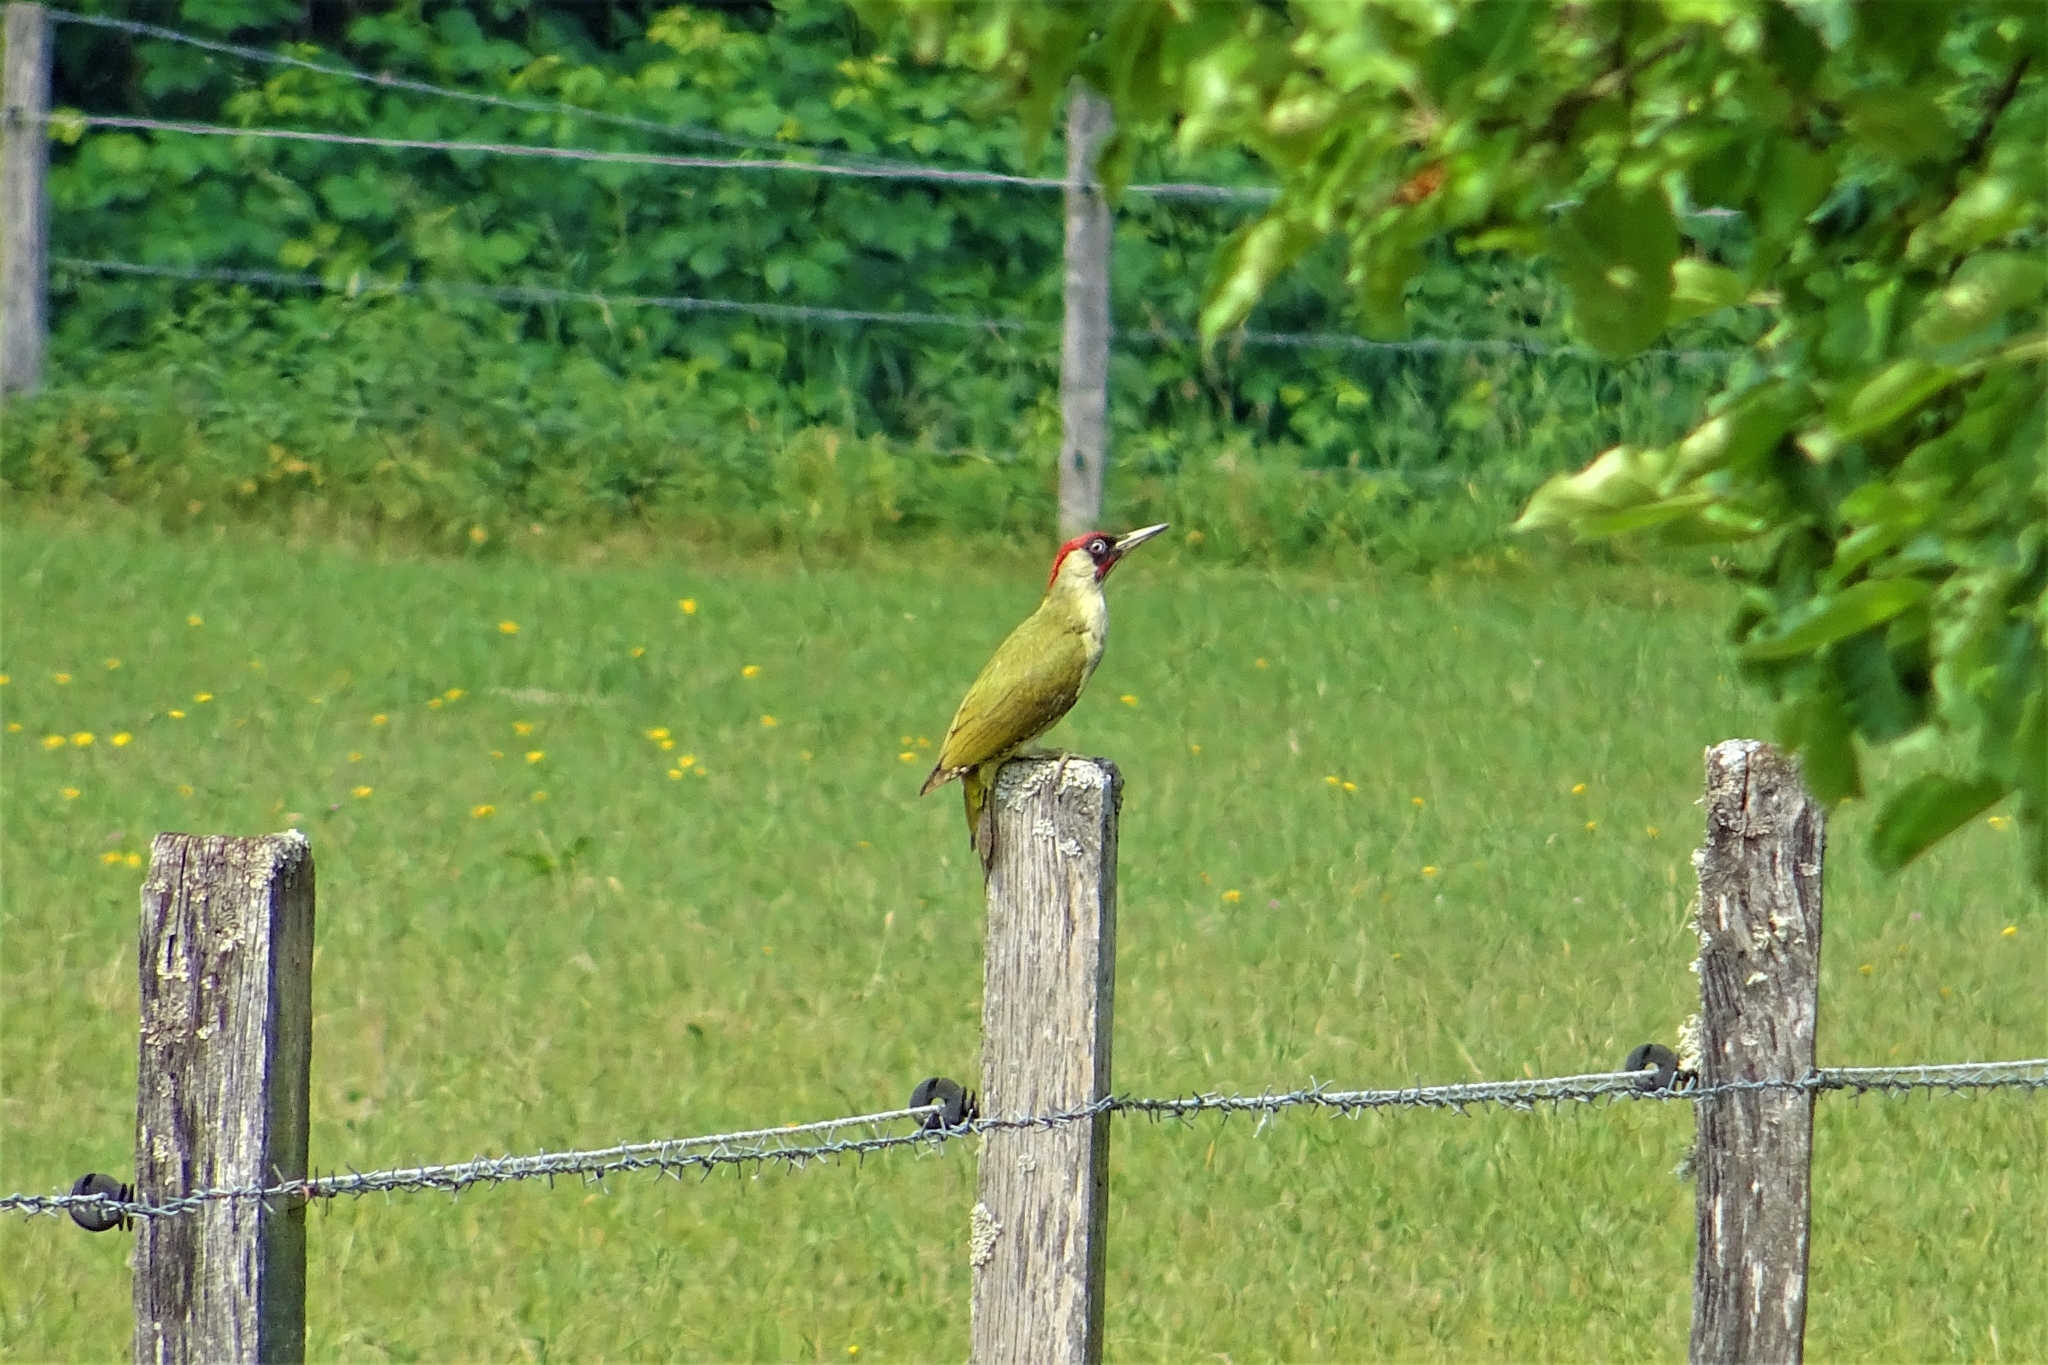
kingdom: Animalia
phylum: Chordata
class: Aves
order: Piciformes
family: Picidae
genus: Picus
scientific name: Picus viridis
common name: European green woodpecker
